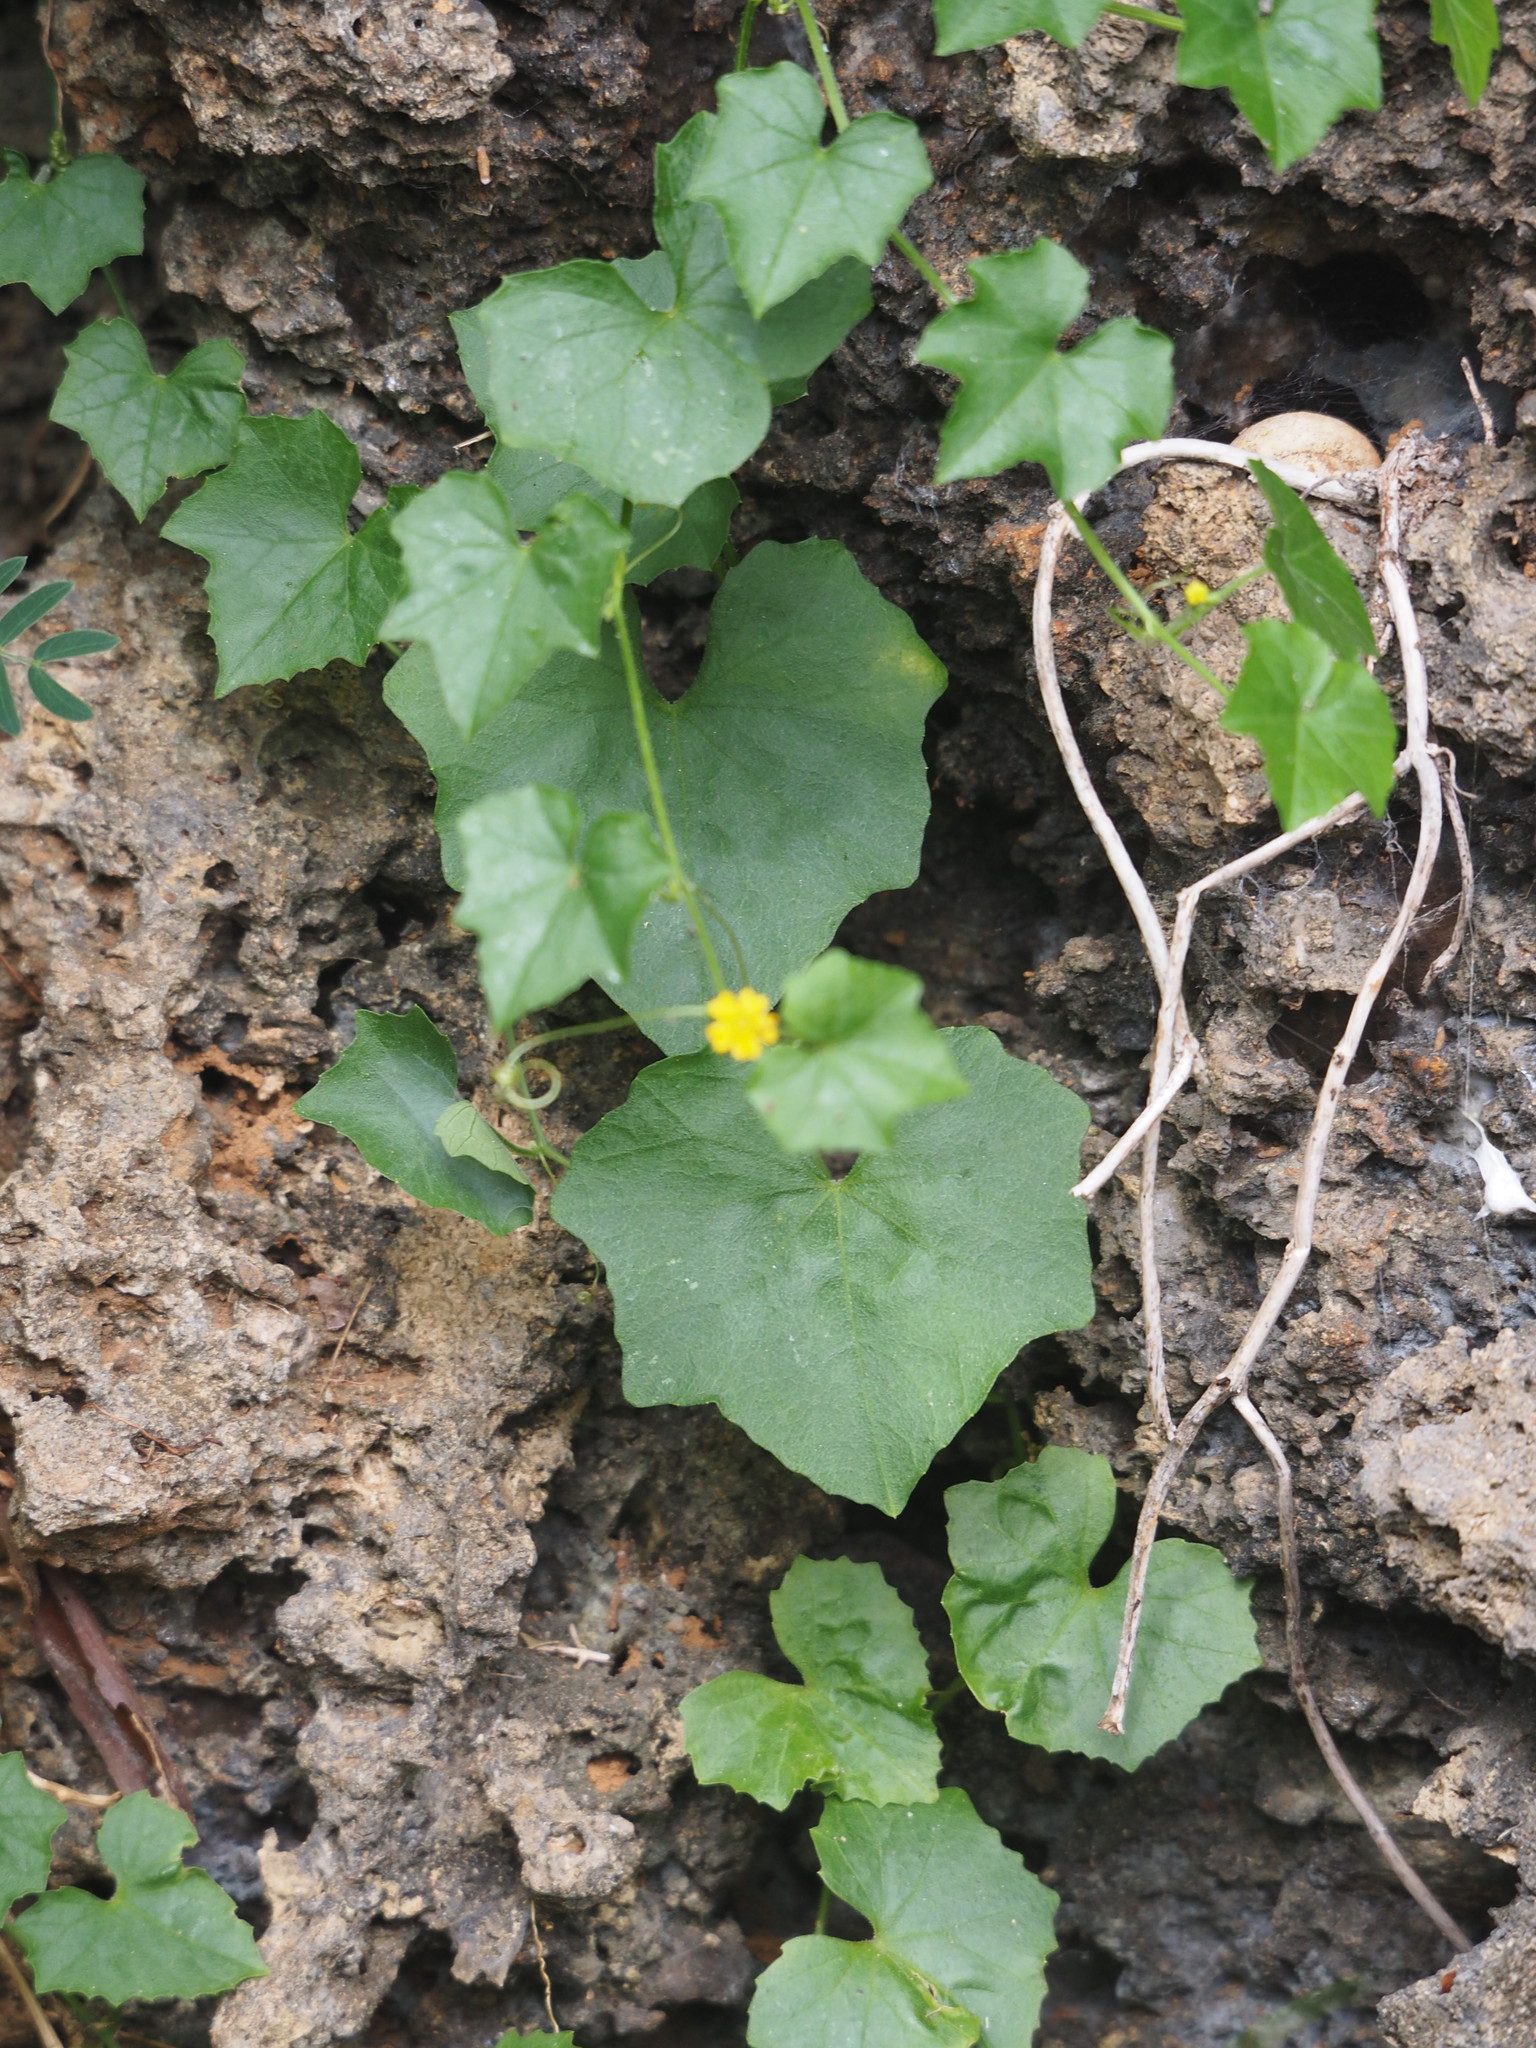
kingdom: Plantae
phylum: Tracheophyta
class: Magnoliopsida
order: Cucurbitales
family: Cucurbitaceae
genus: Melothria
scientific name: Melothria pendula
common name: Creeping-cucumber
